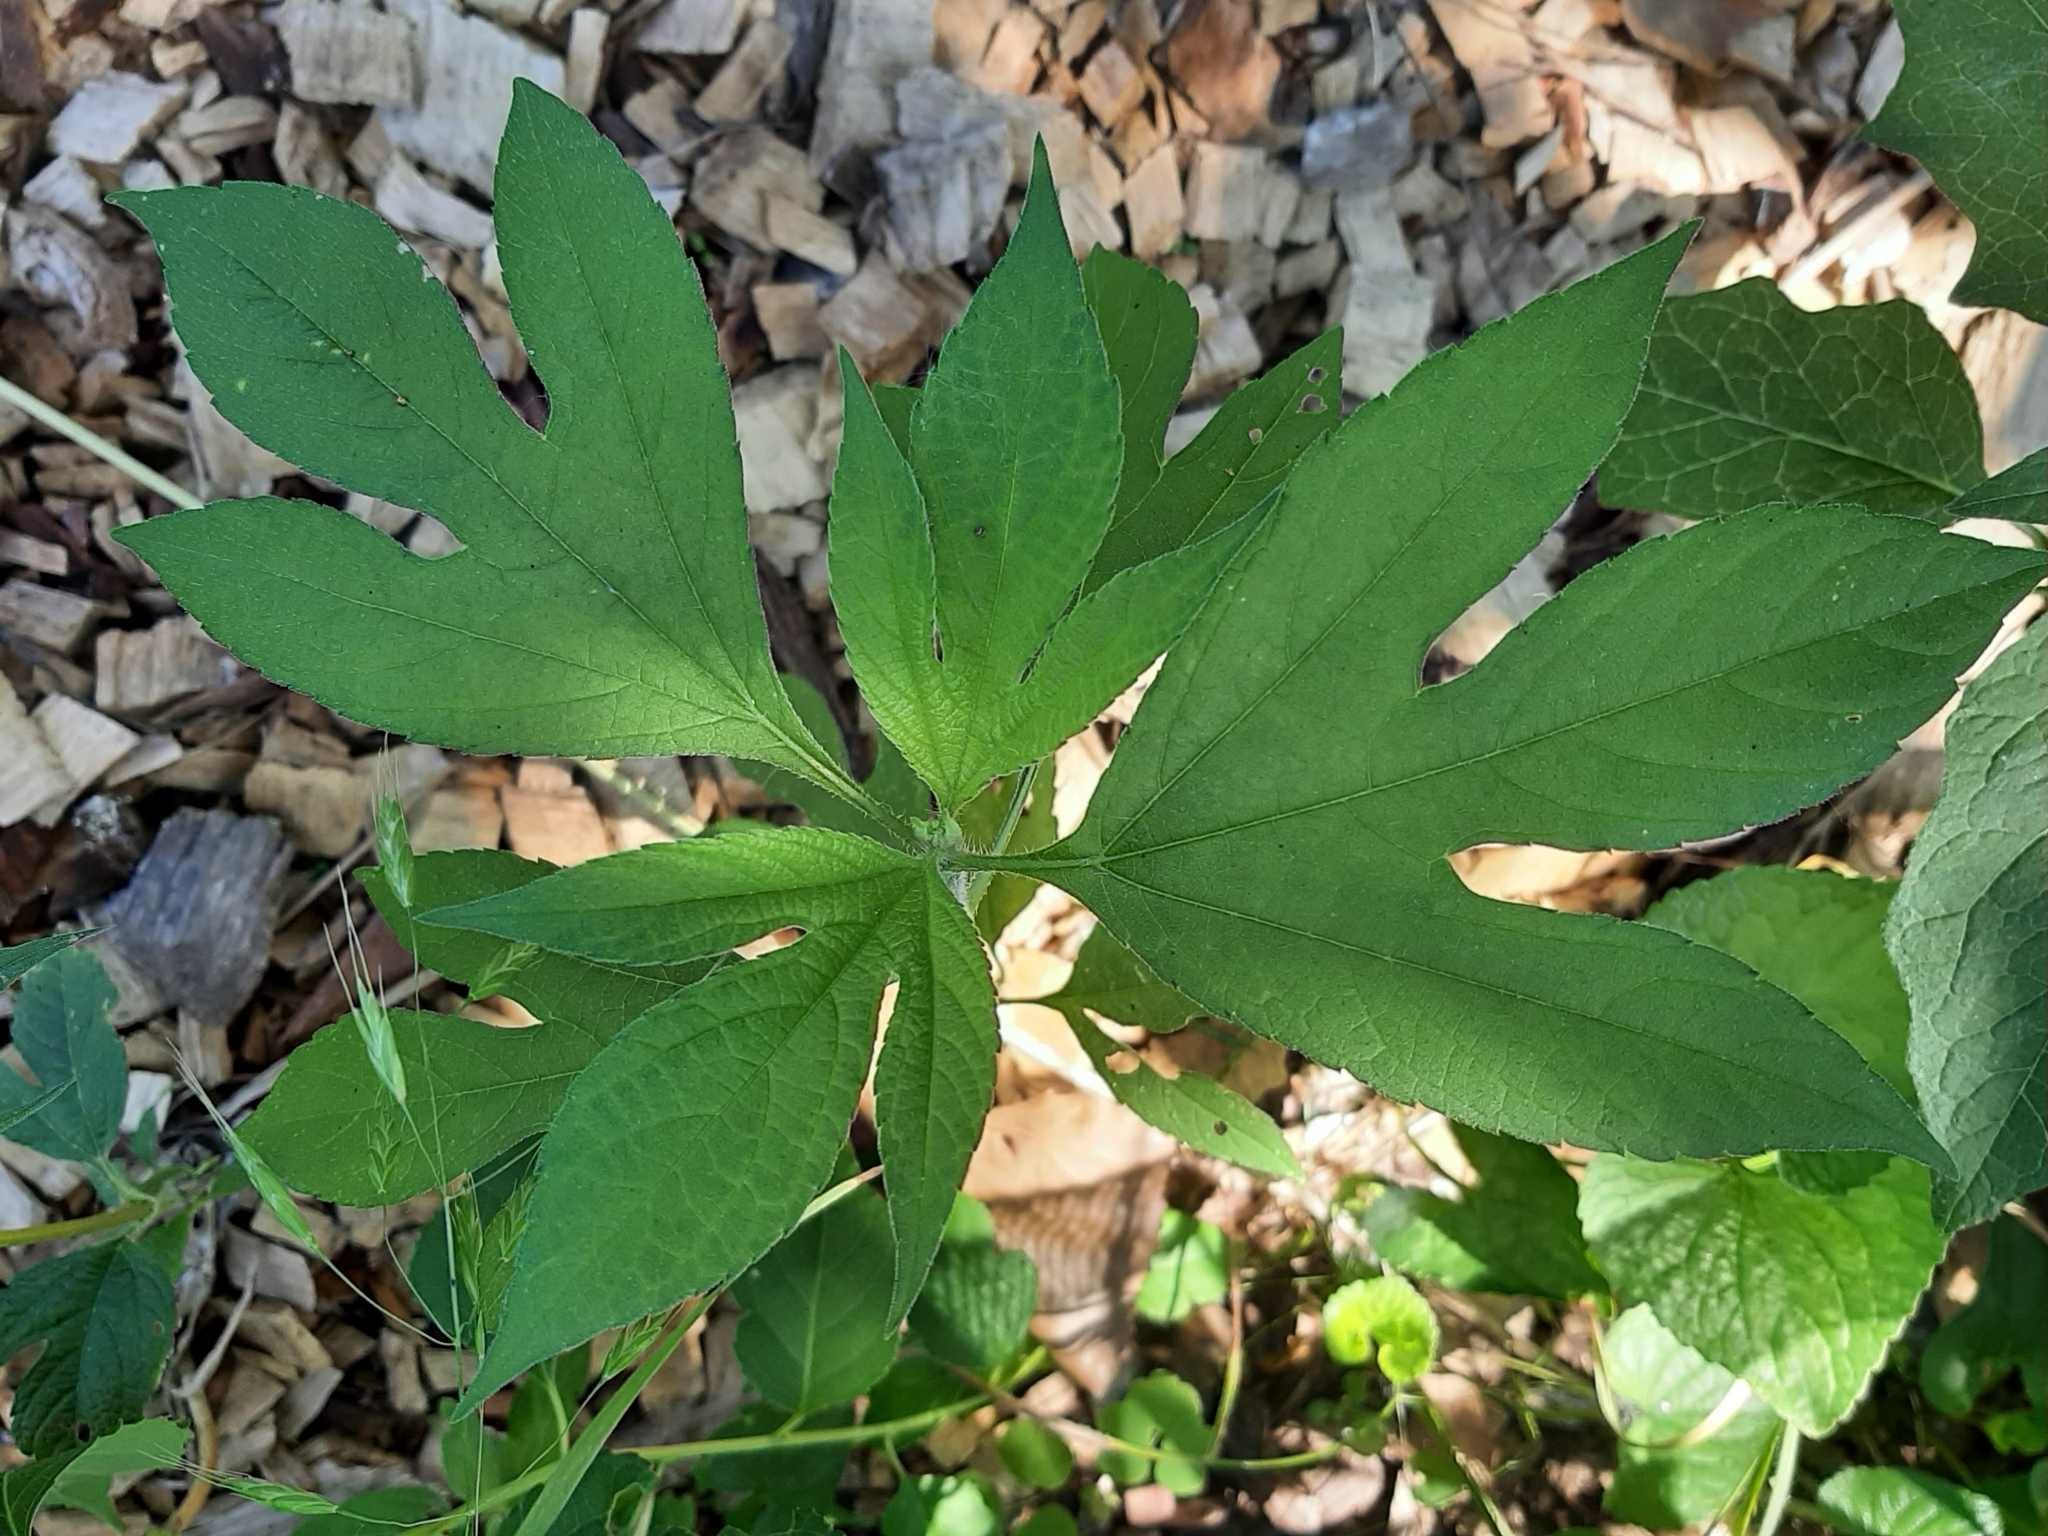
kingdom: Plantae
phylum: Tracheophyta
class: Magnoliopsida
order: Asterales
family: Asteraceae
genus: Ambrosia
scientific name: Ambrosia trifida
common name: Giant ragweed
